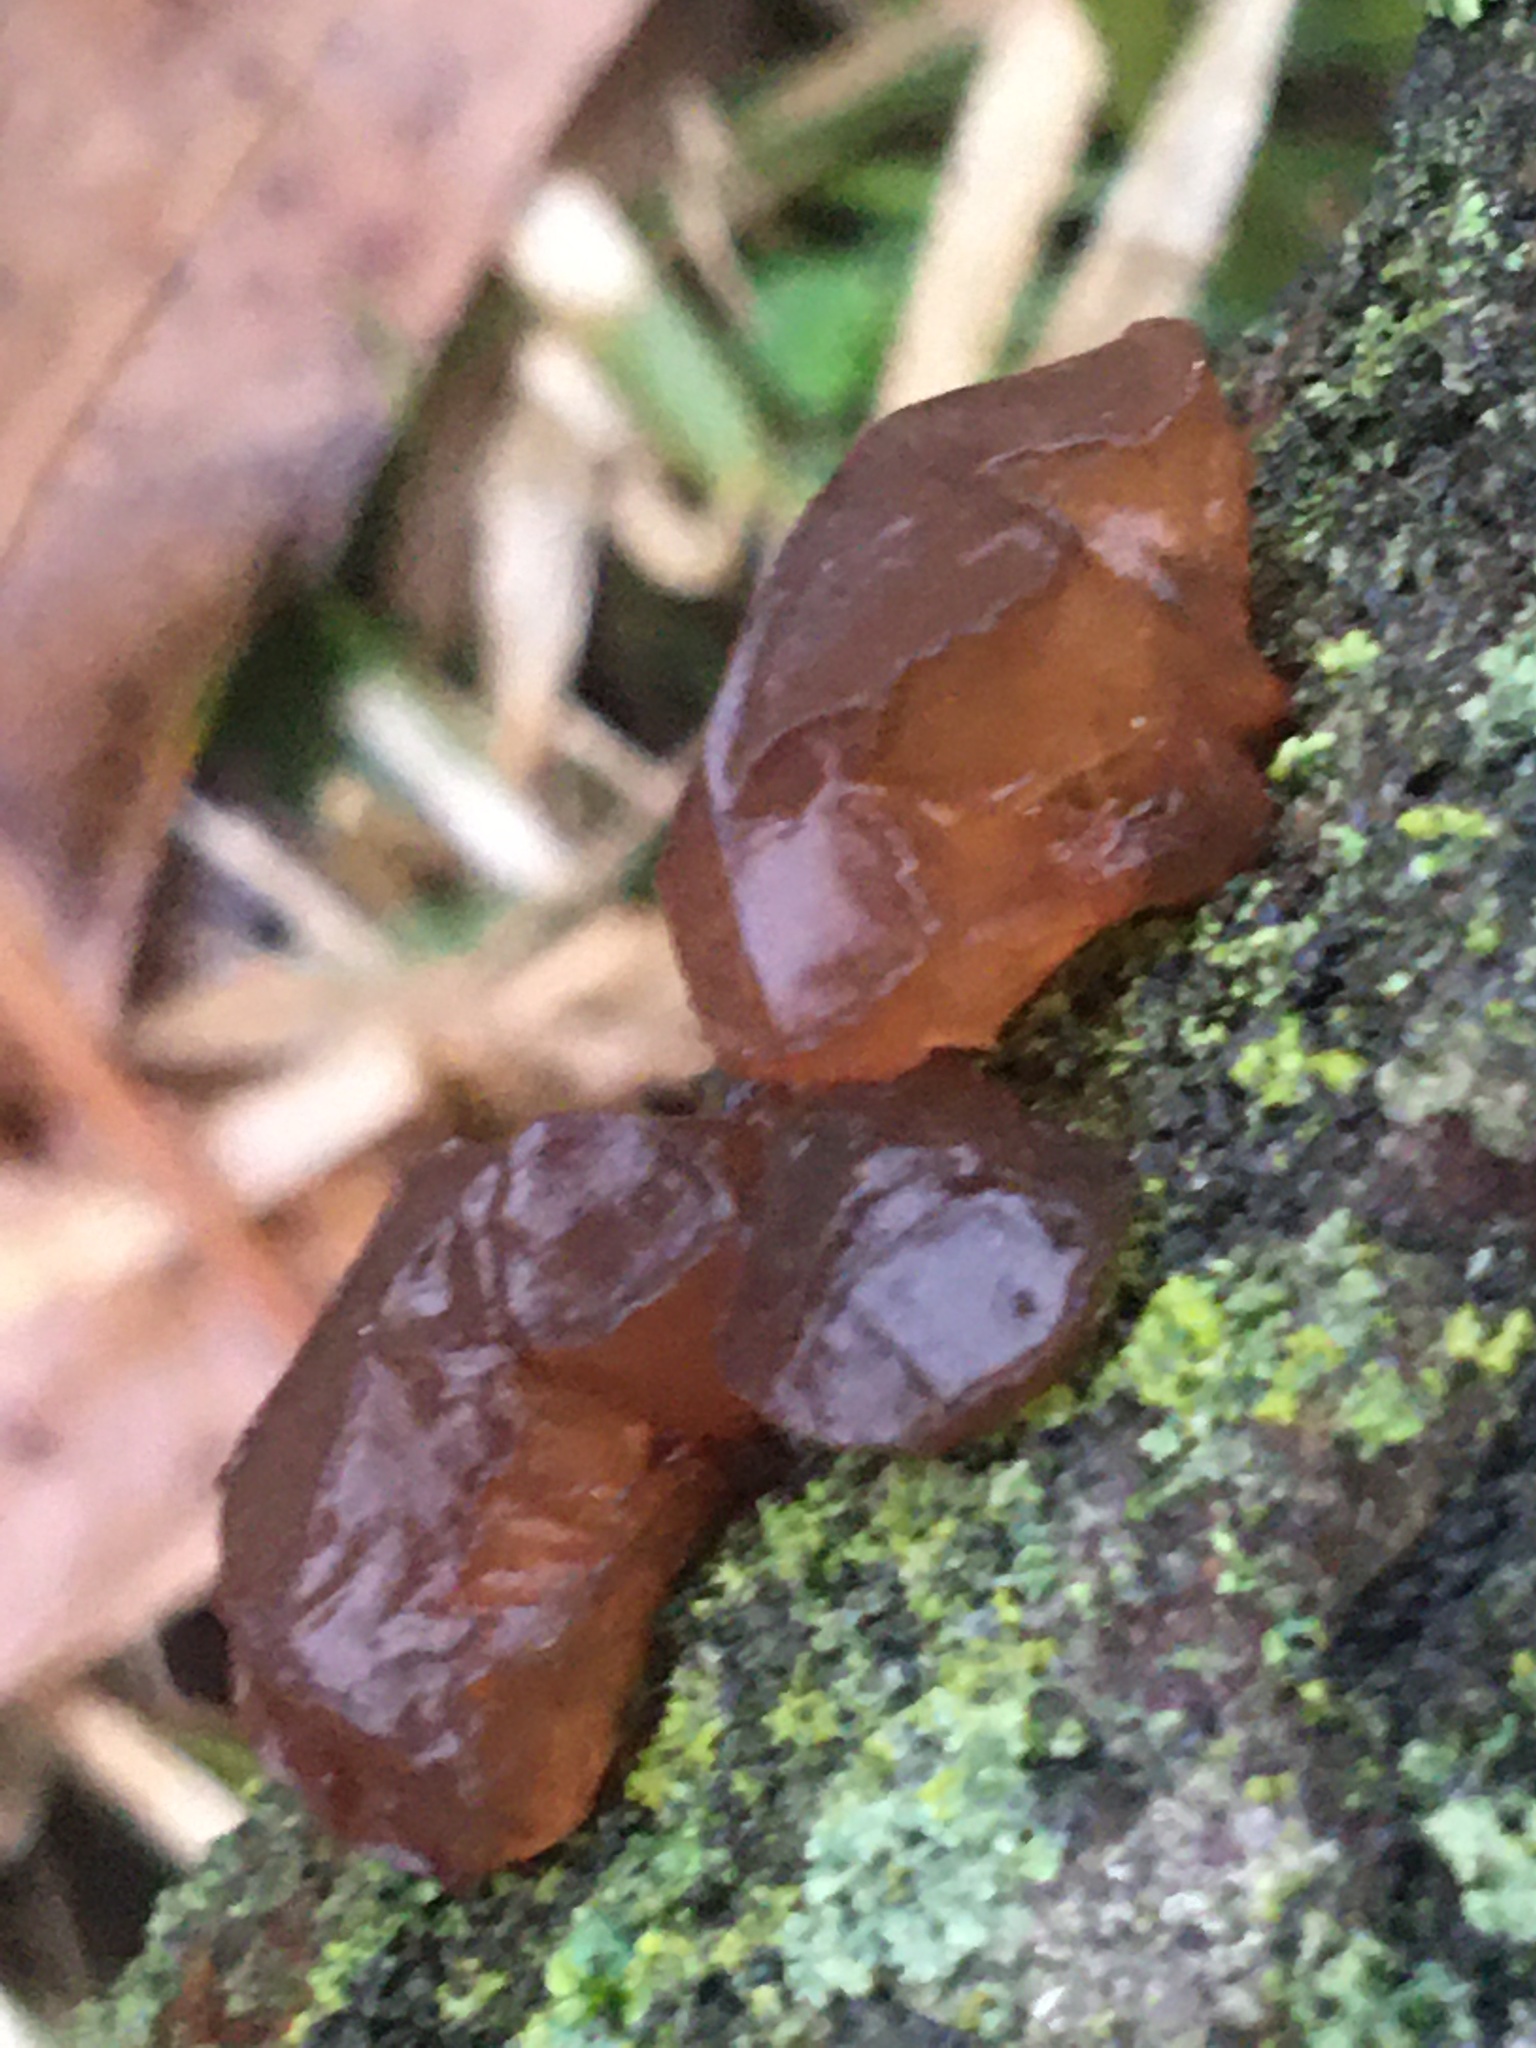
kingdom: Fungi
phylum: Basidiomycota
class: Agaricomycetes
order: Auriculariales
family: Auriculariaceae
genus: Exidia
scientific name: Exidia
